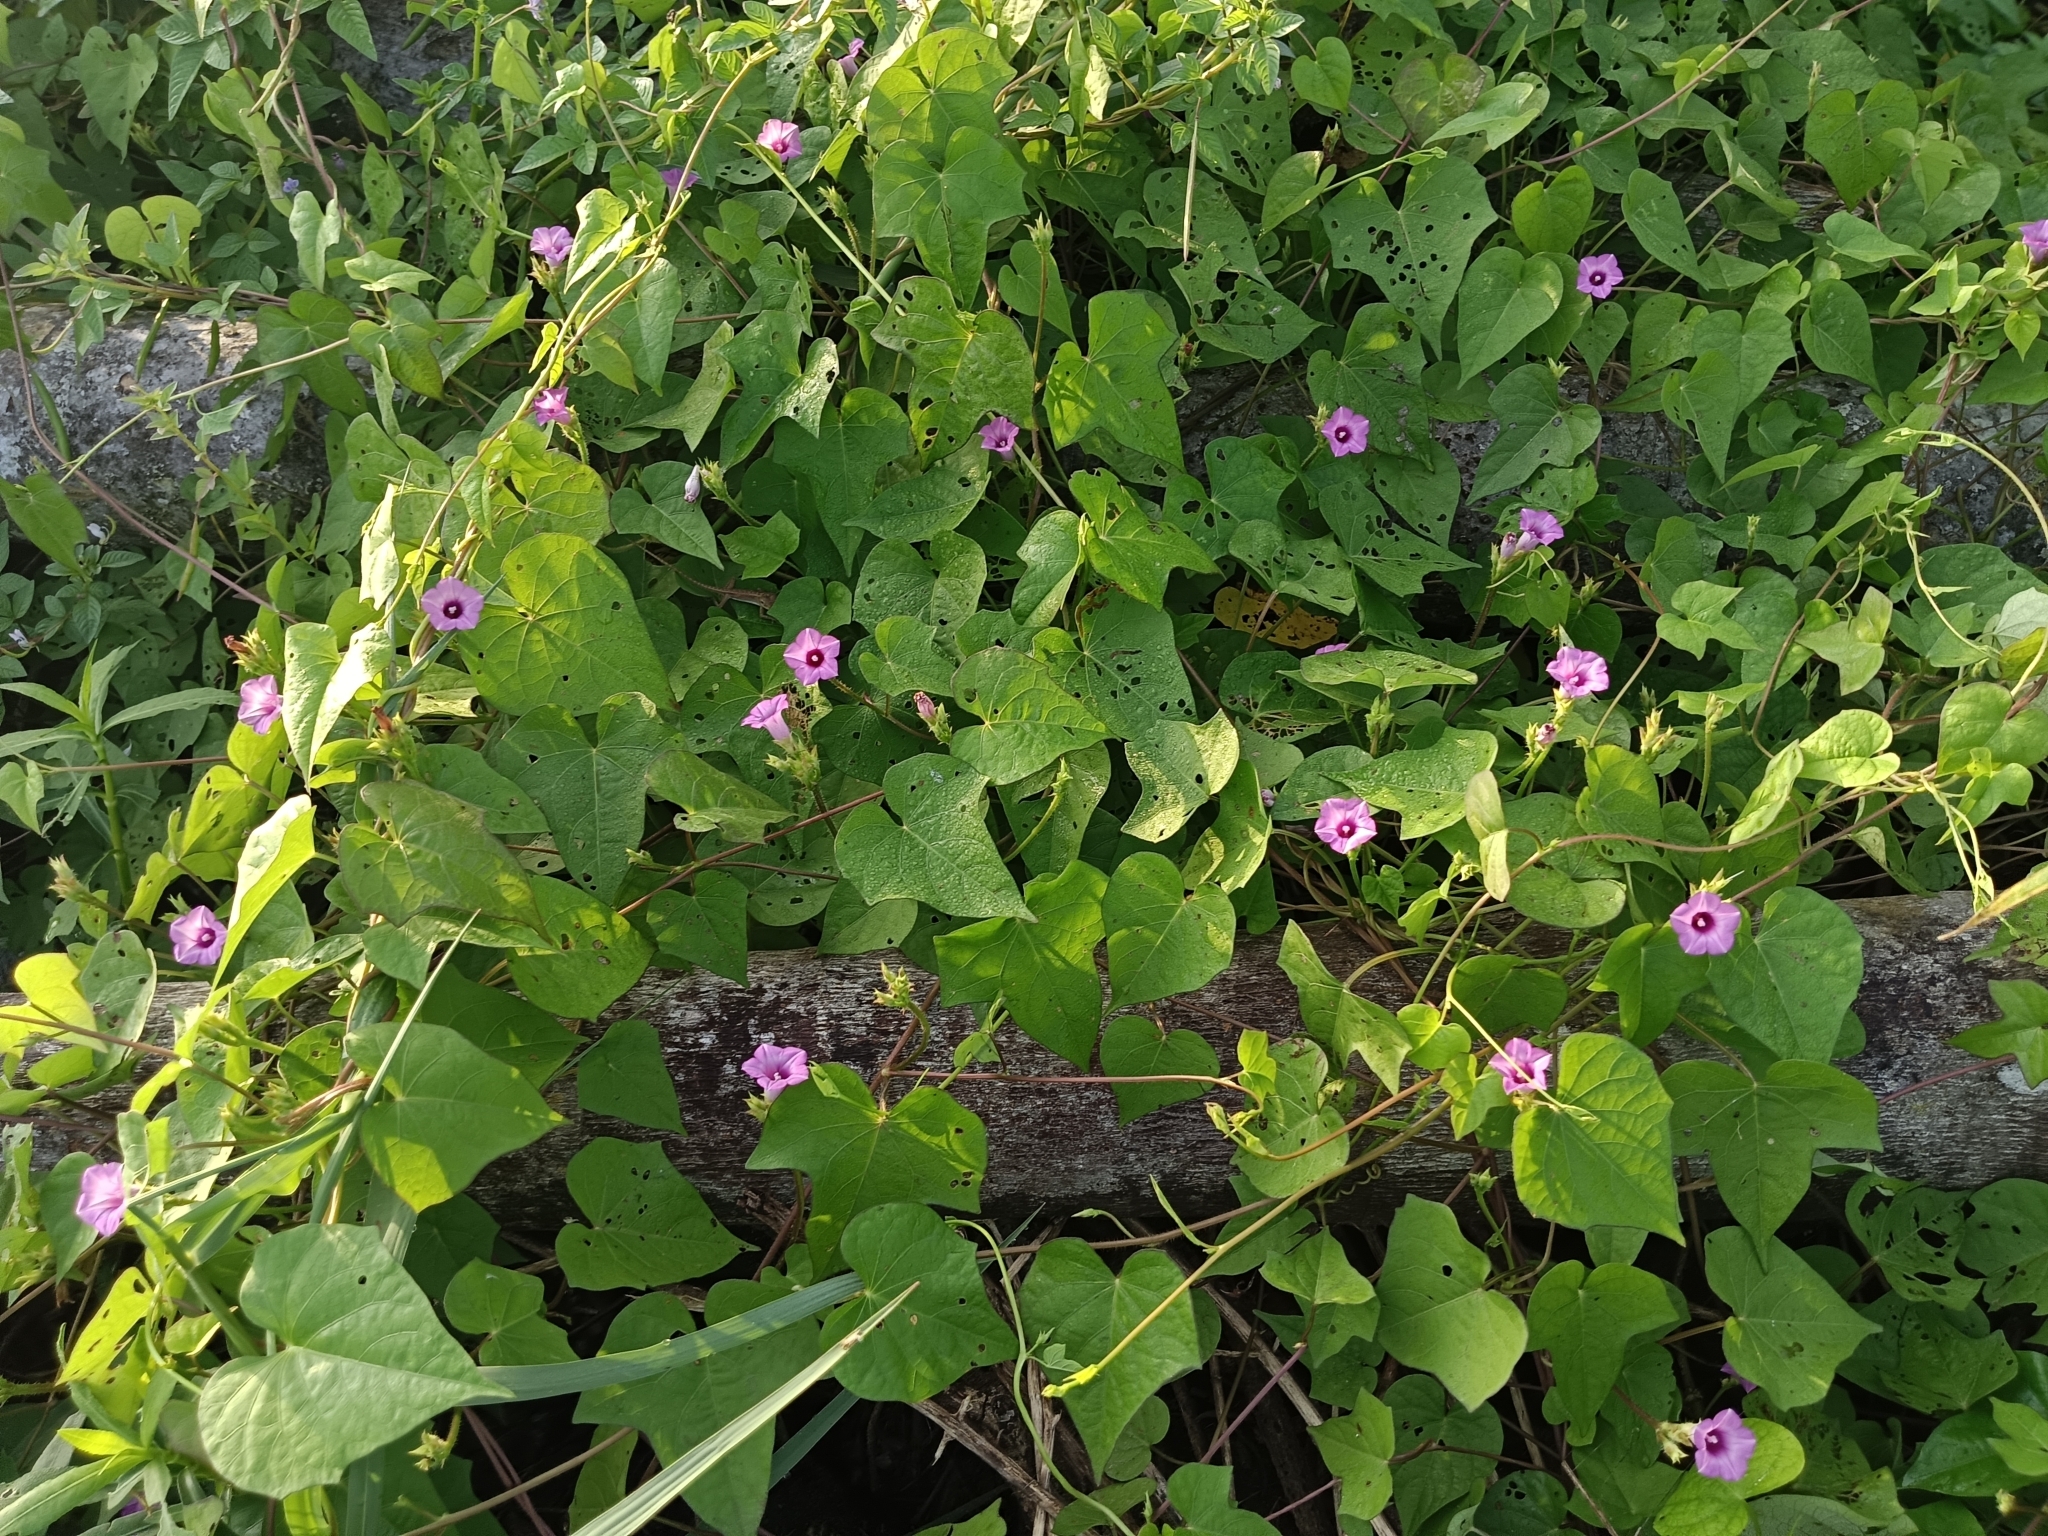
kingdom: Plantae
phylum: Tracheophyta
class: Magnoliopsida
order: Solanales
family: Convolvulaceae
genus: Ipomoea
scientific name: Ipomoea triloba
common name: Little-bell
